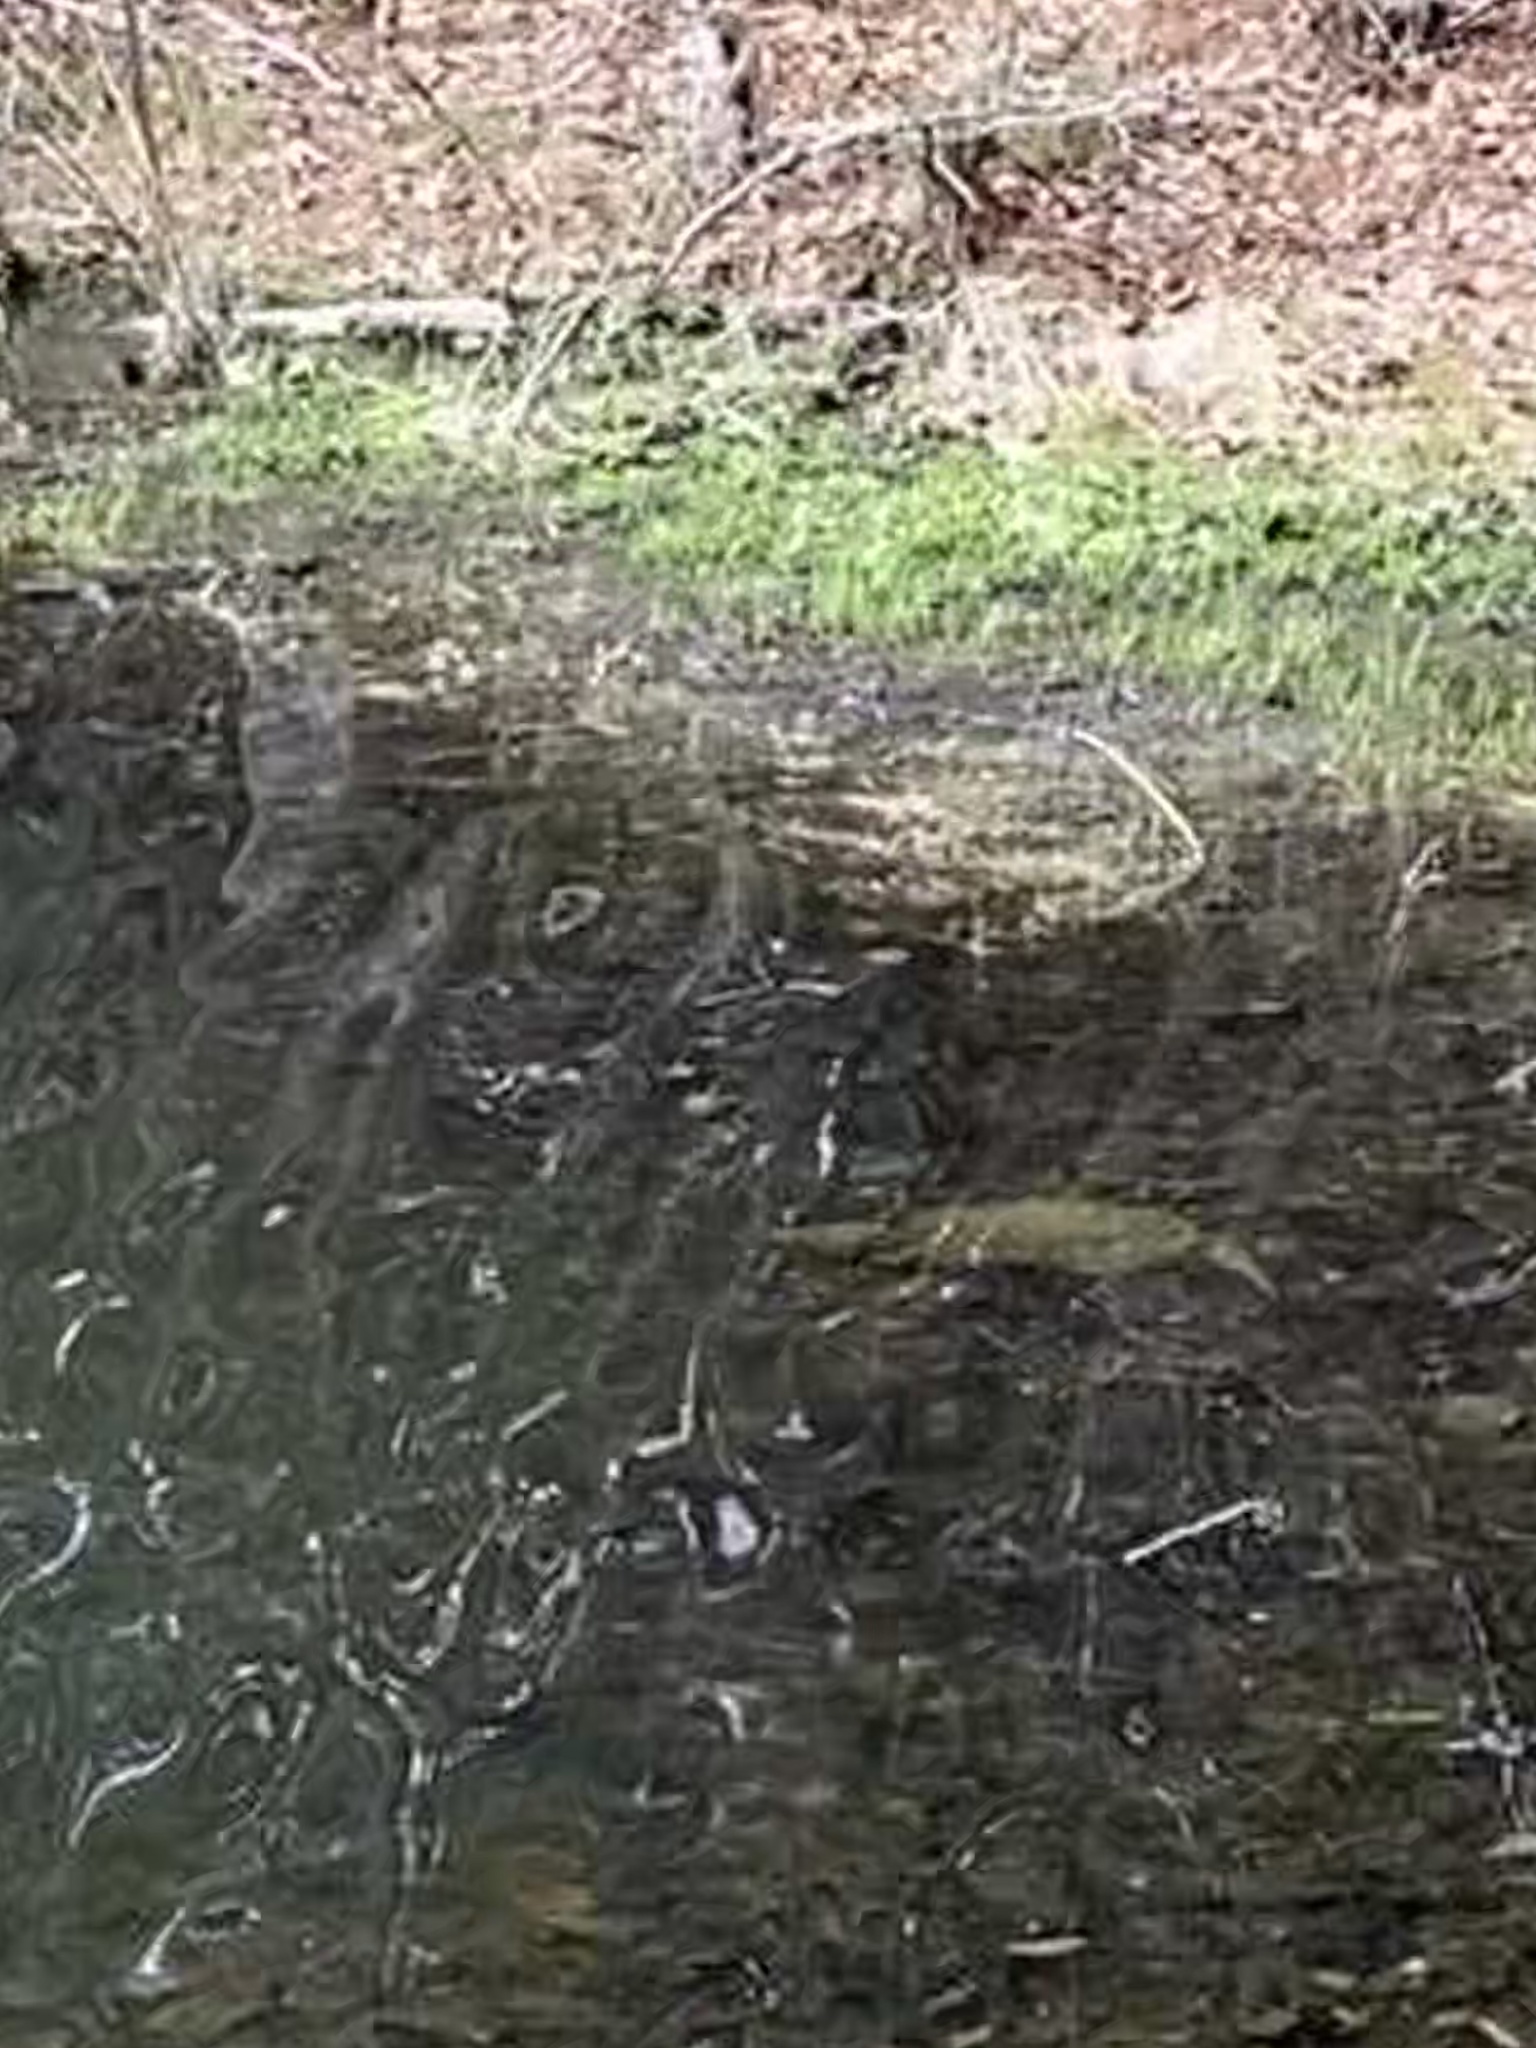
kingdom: Animalia
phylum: Chordata
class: Testudines
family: Chelydridae
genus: Chelydra
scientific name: Chelydra serpentina
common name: Common snapping turtle
